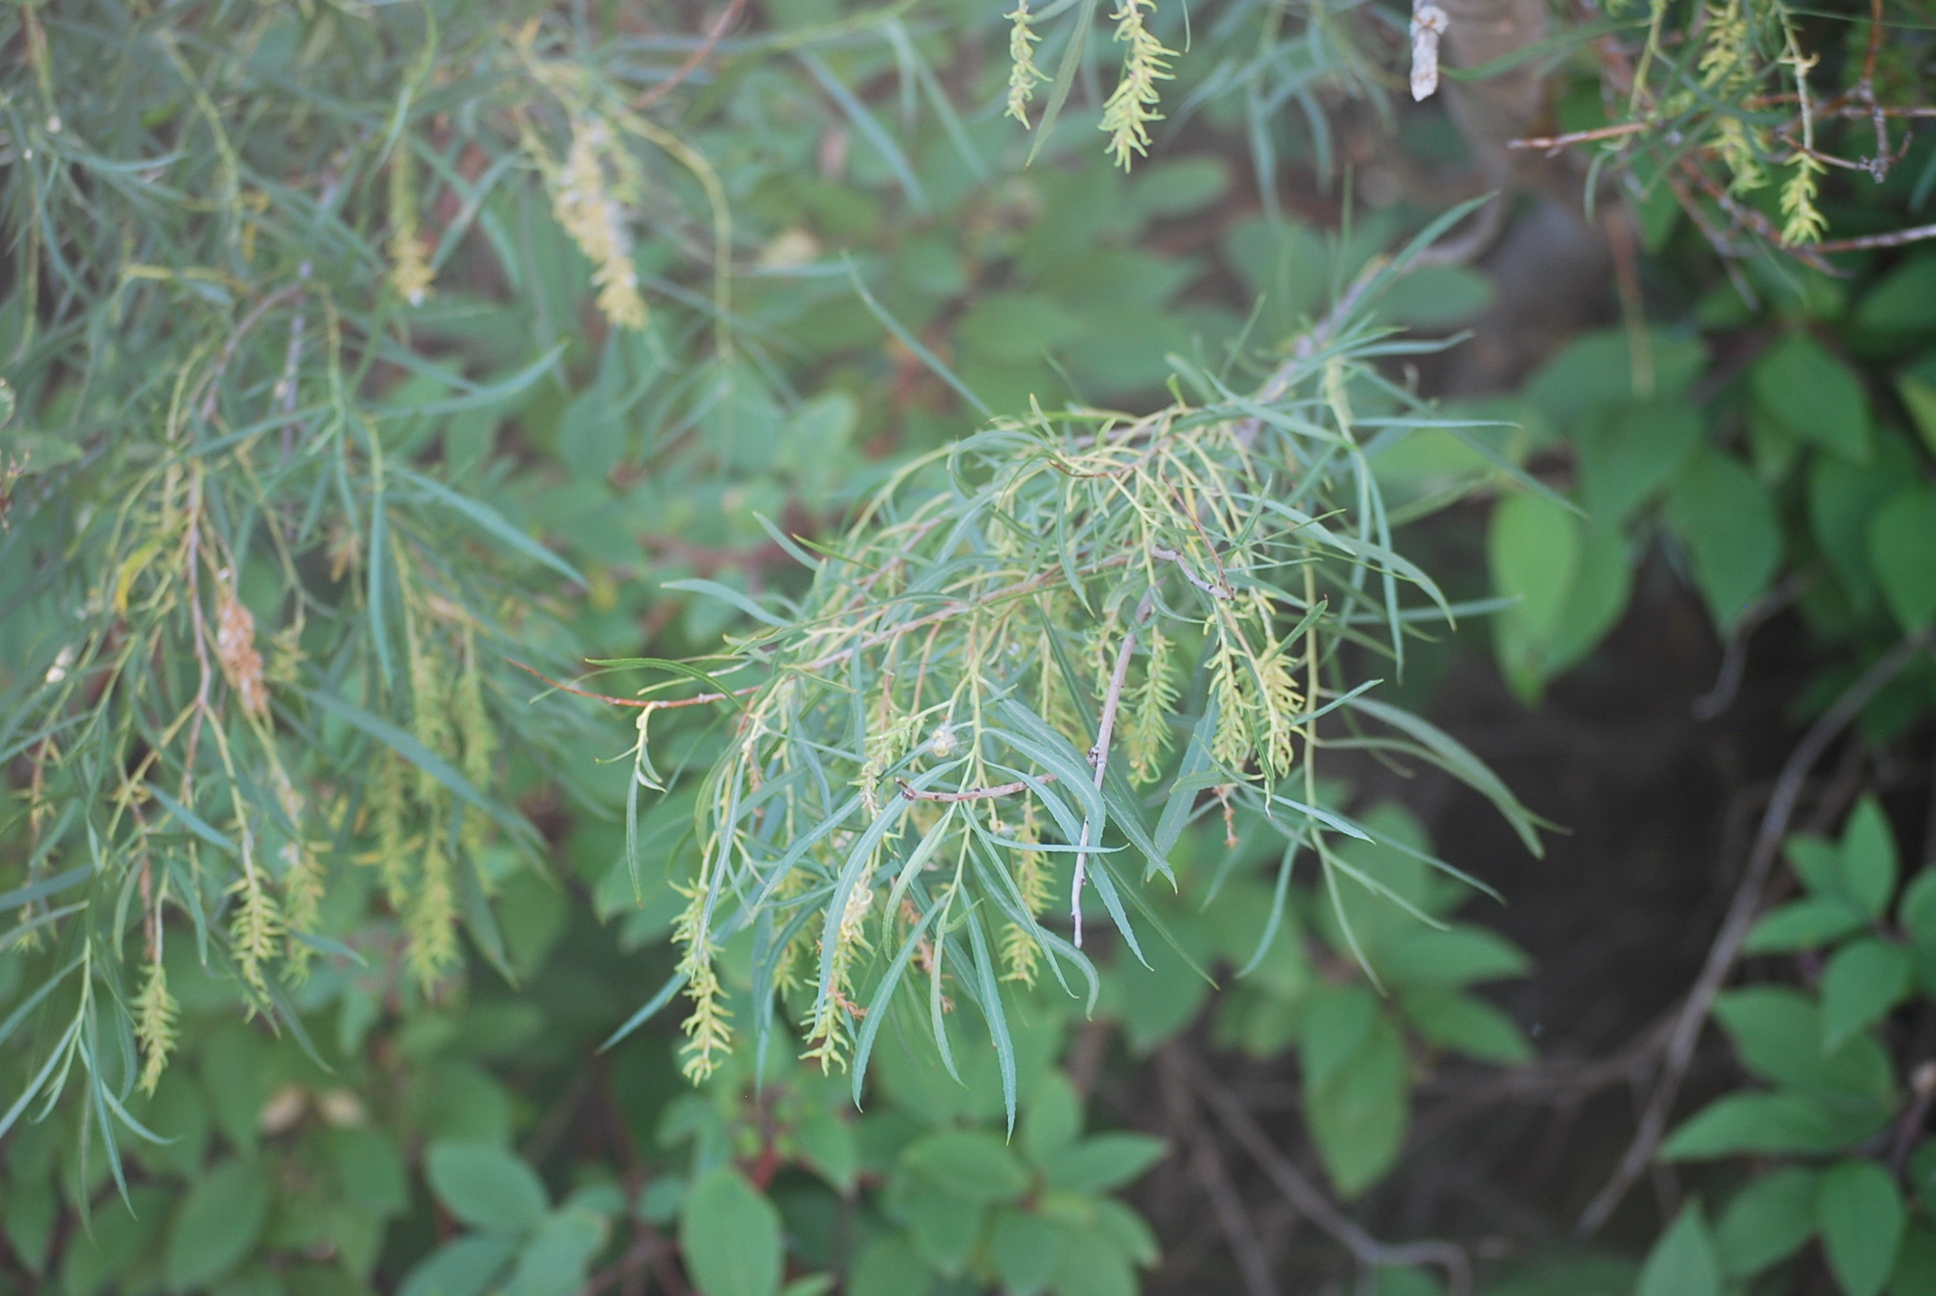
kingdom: Plantae
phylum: Tracheophyta
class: Magnoliopsida
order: Malpighiales
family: Salicaceae
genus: Salix
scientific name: Salix interior
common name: Sandbar willow
